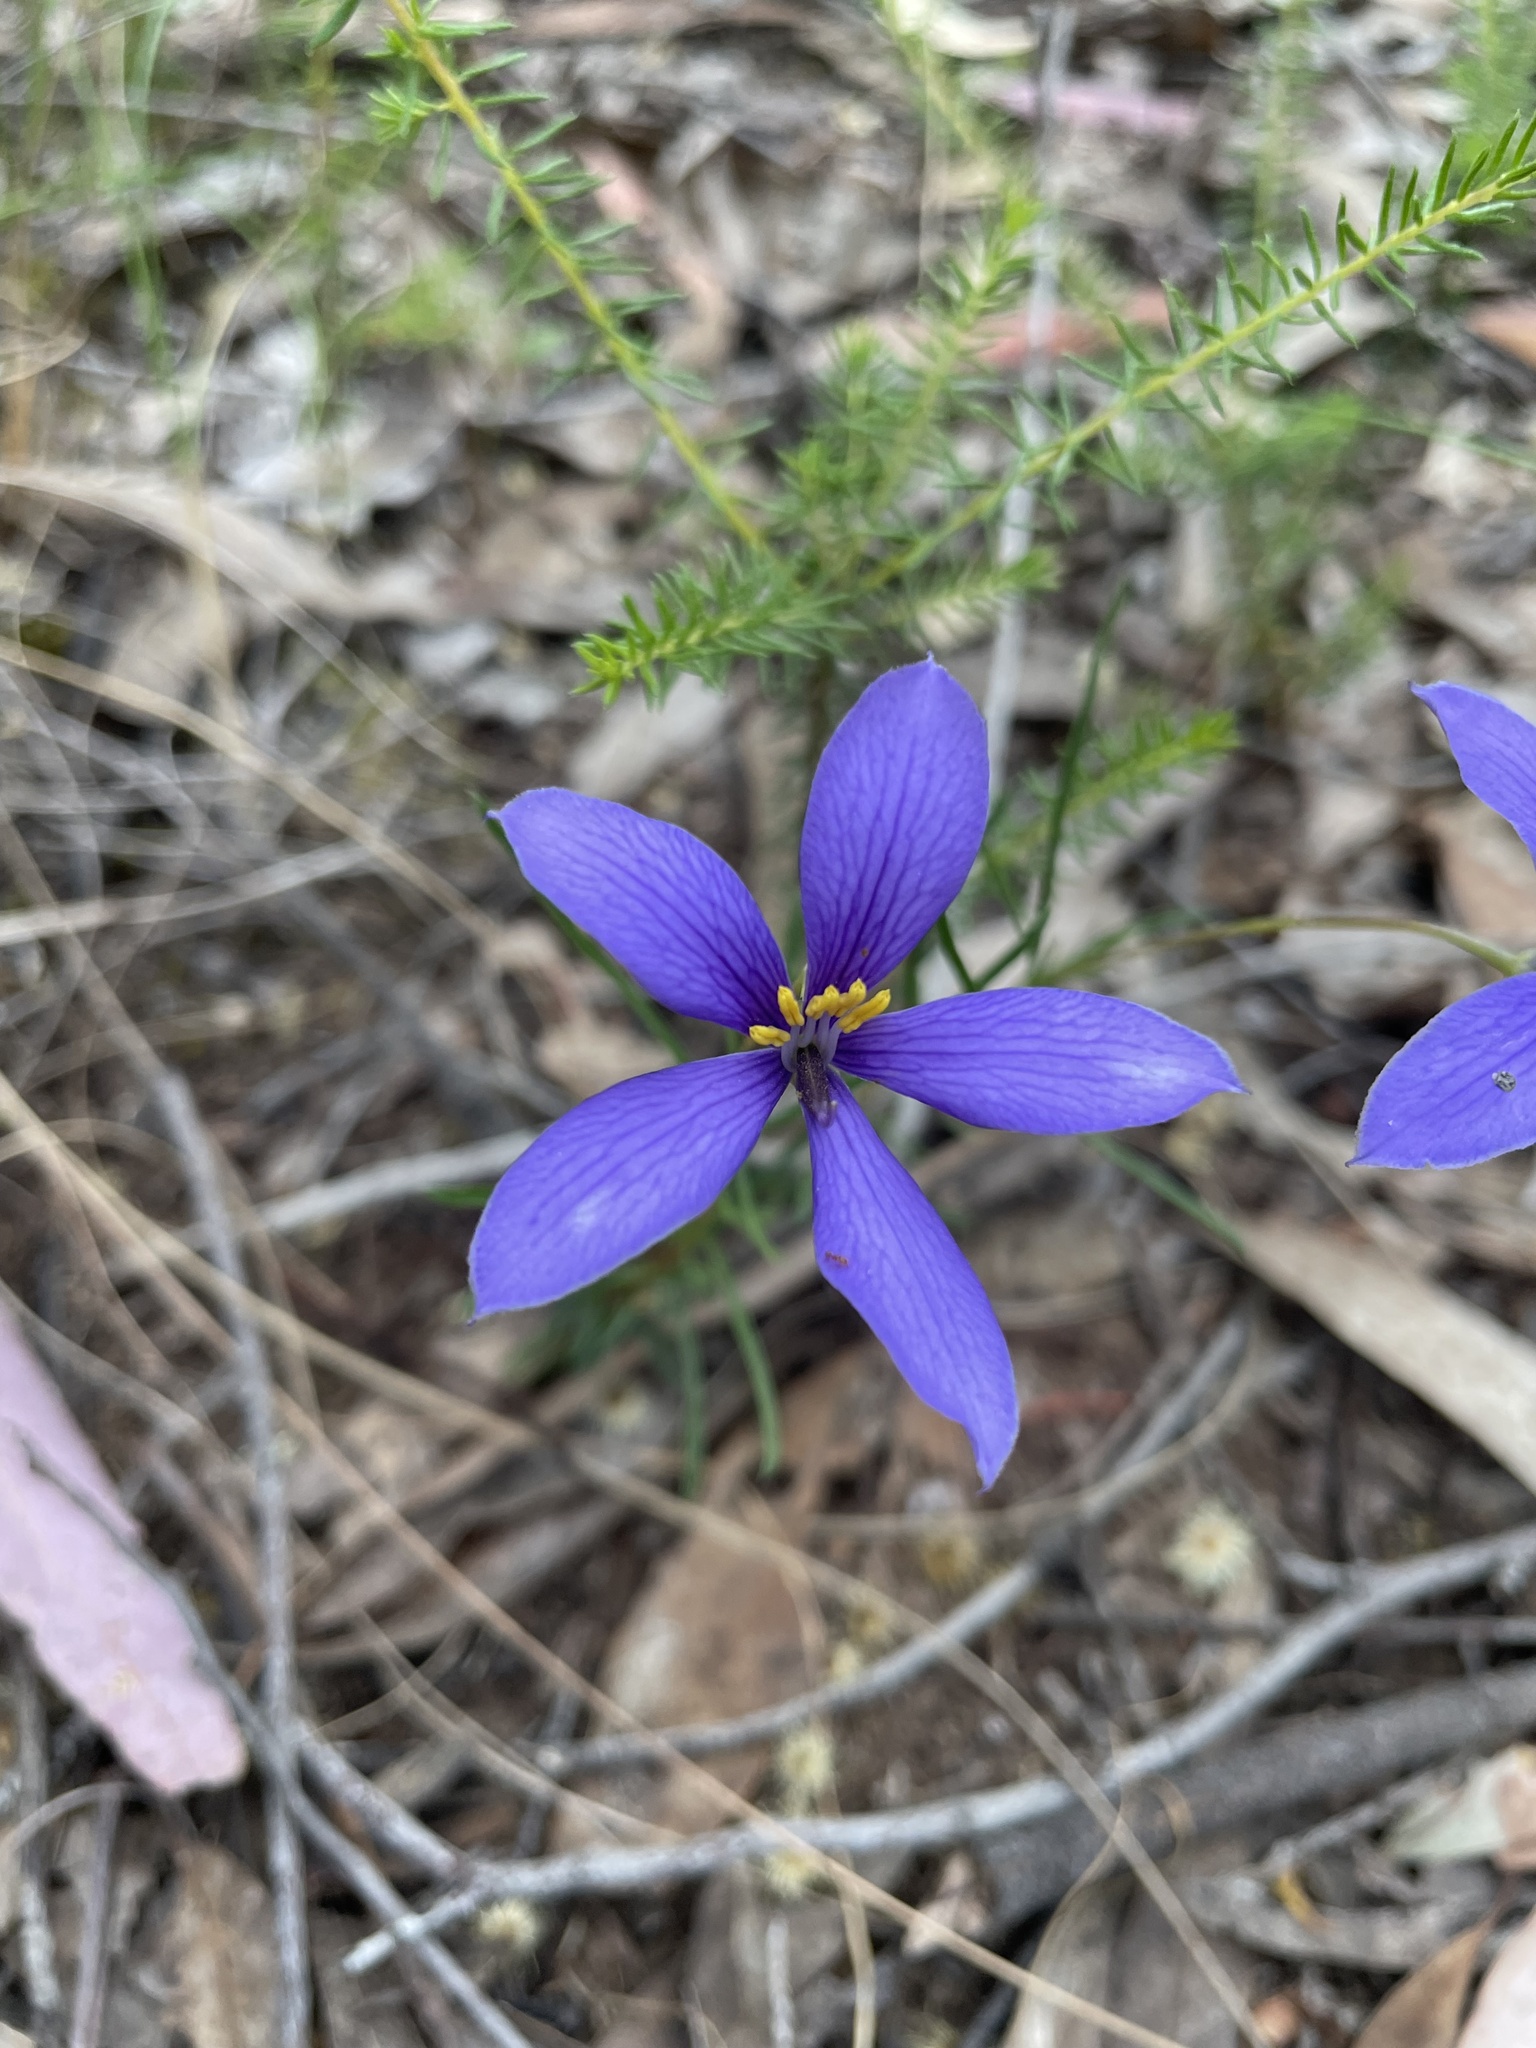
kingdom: Plantae
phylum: Tracheophyta
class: Magnoliopsida
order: Apiales
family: Pittosporaceae
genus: Cheiranthera
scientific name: Cheiranthera linearis
